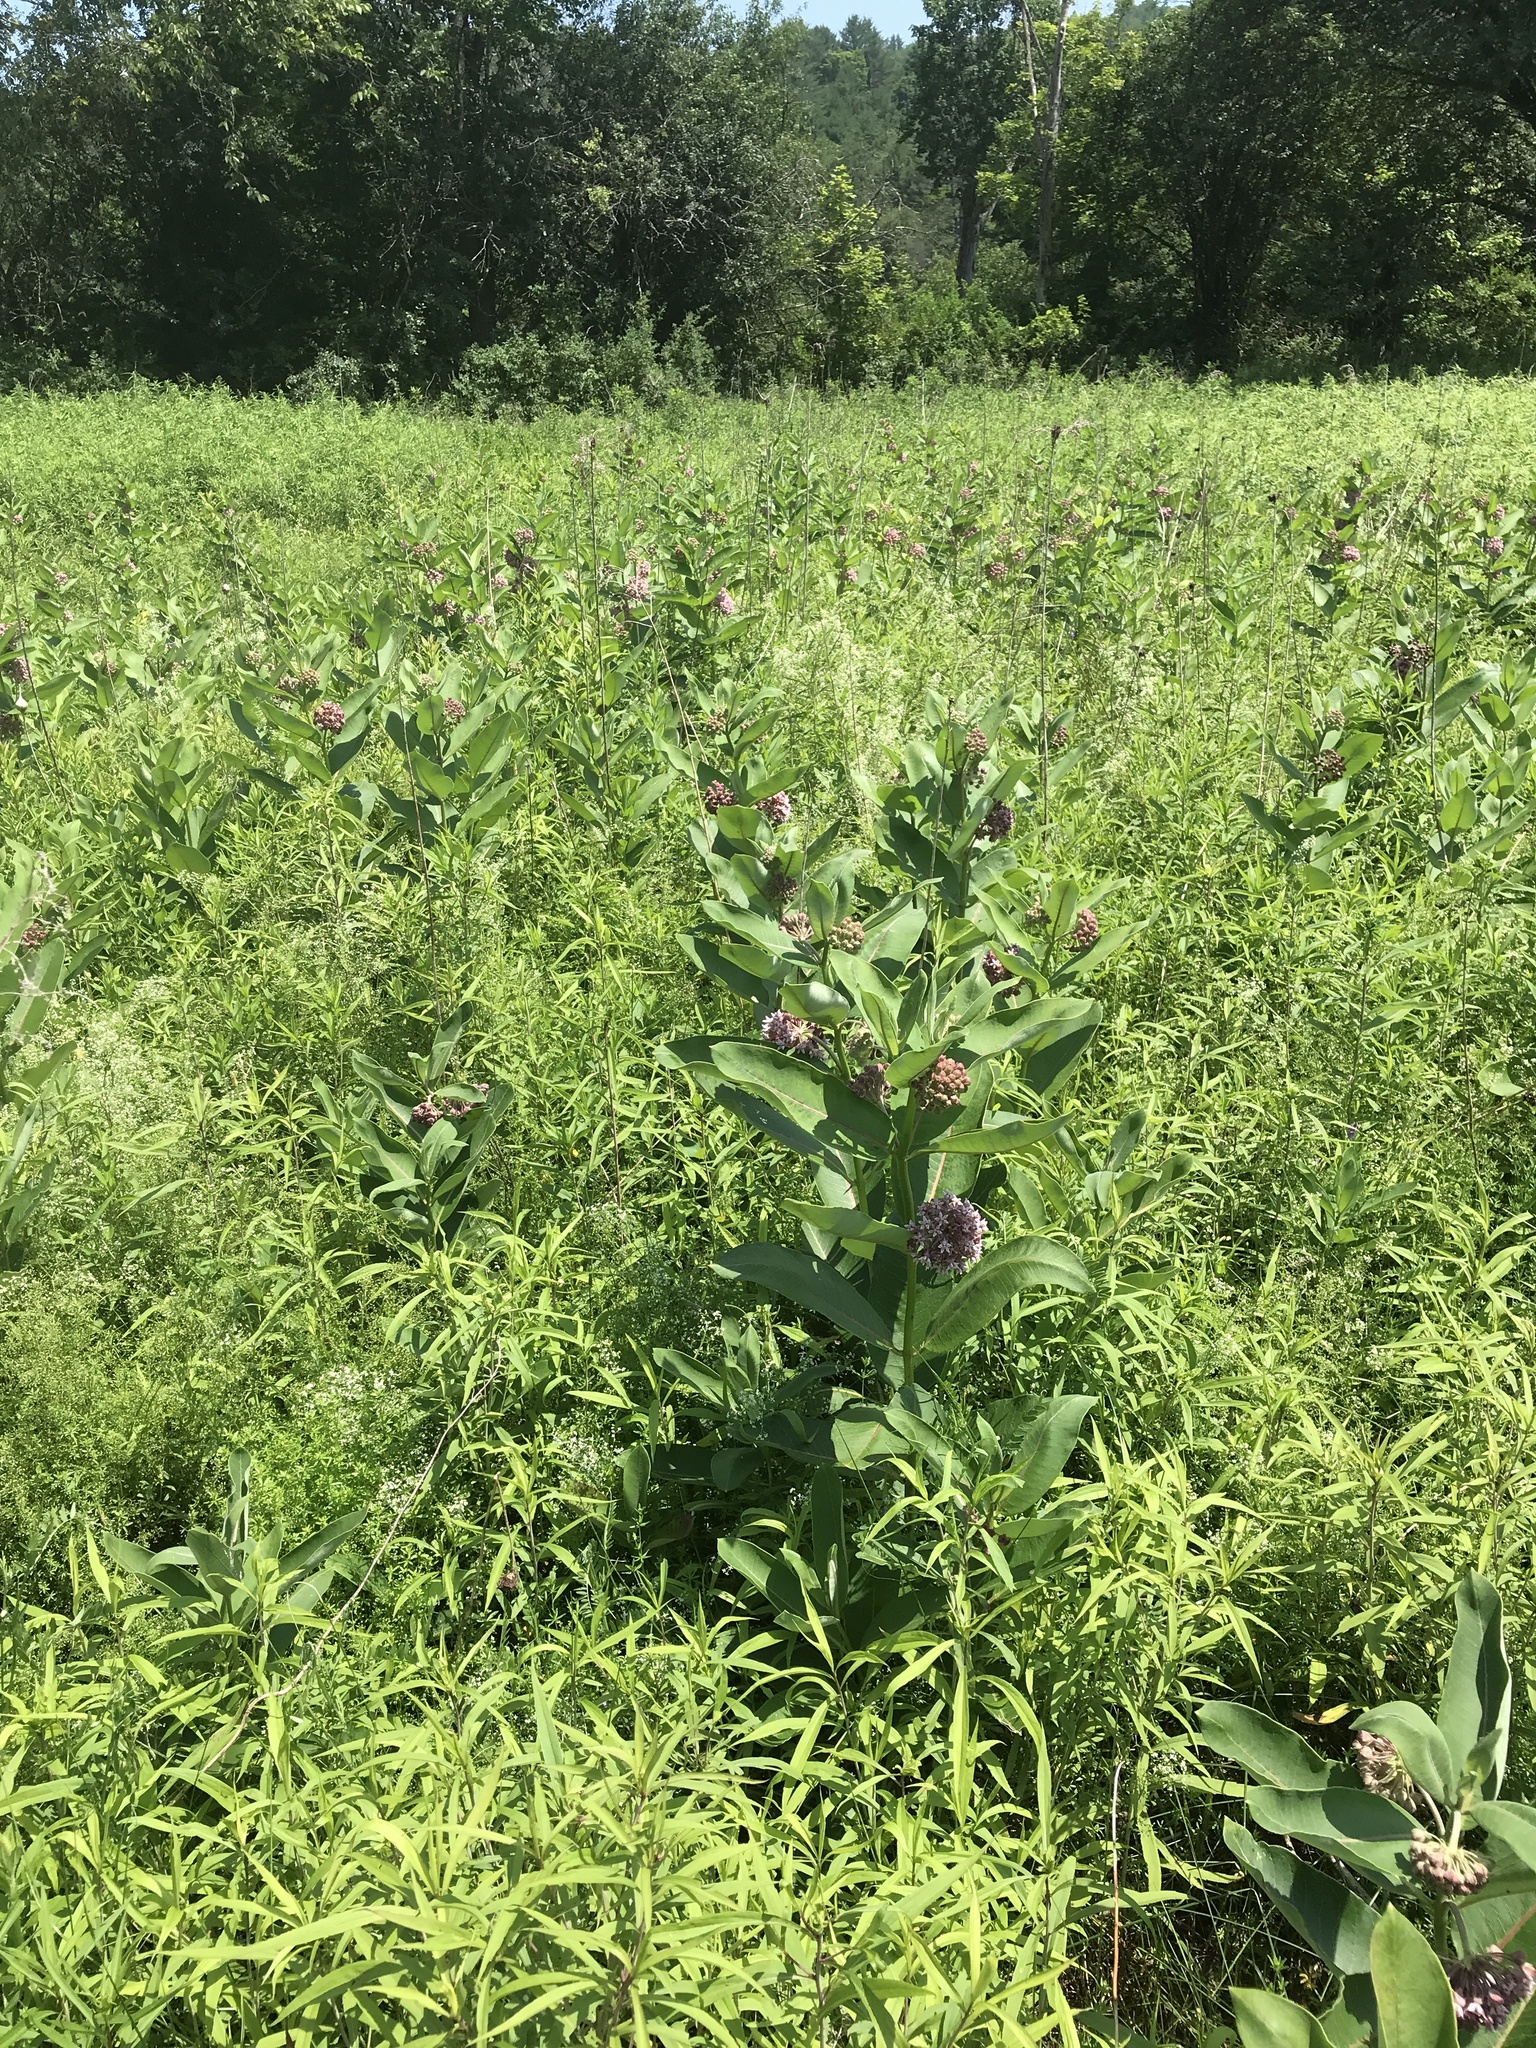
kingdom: Plantae
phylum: Tracheophyta
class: Magnoliopsida
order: Gentianales
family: Apocynaceae
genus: Asclepias
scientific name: Asclepias syriaca
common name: Common milkweed
